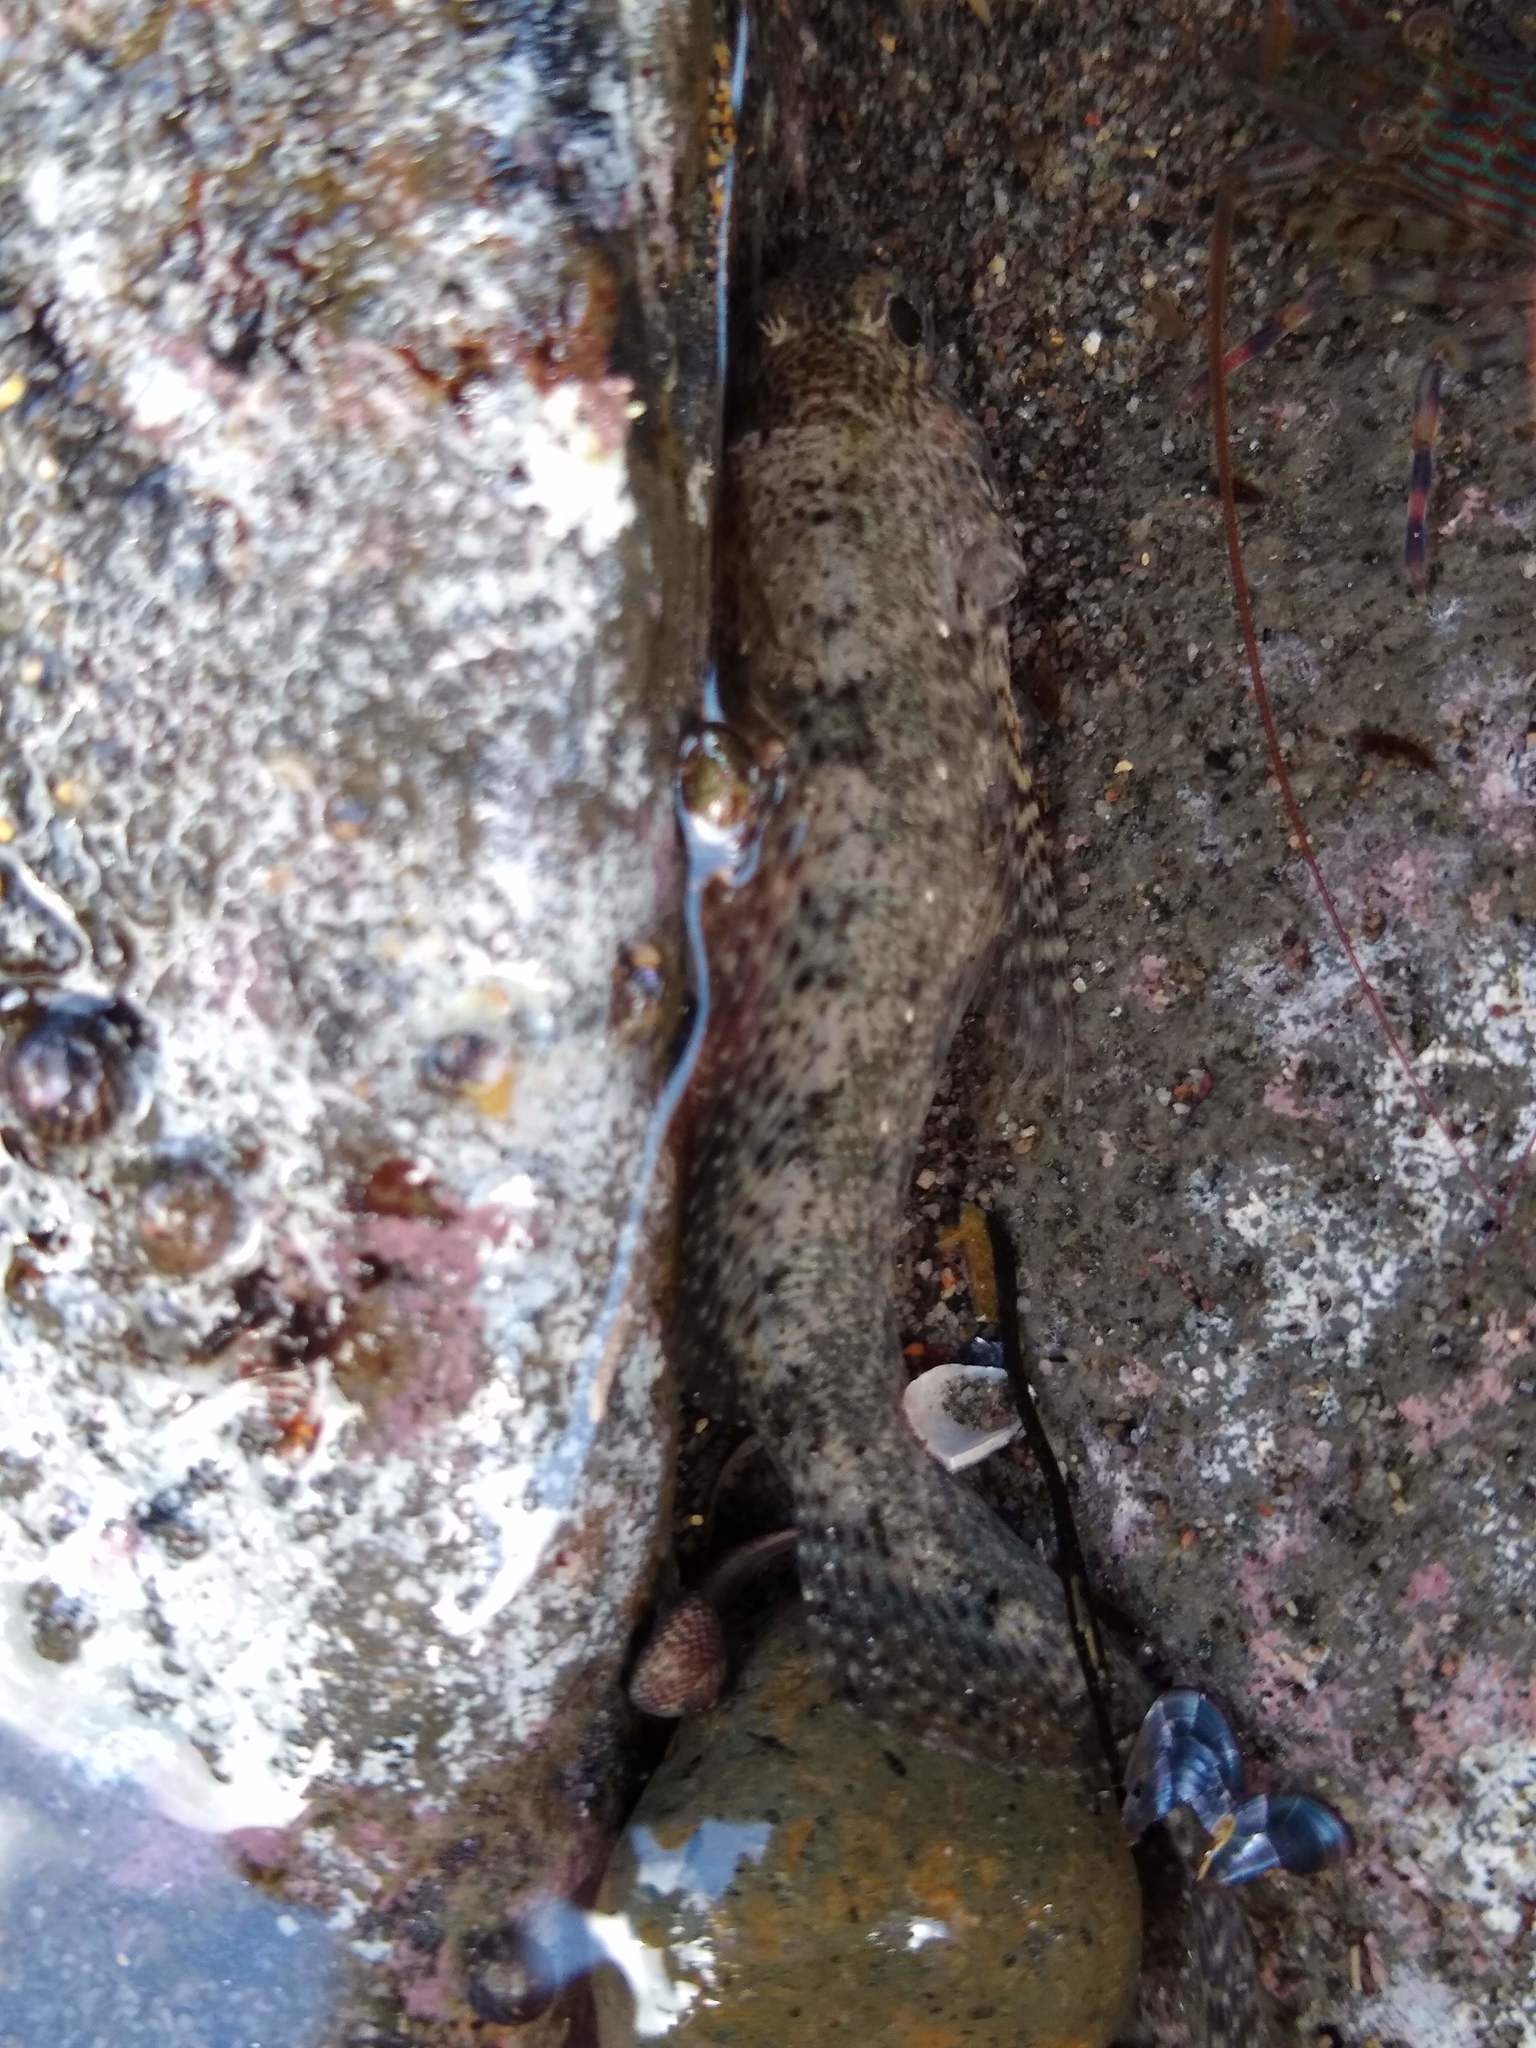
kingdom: Animalia
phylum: Chordata
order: Perciformes
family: Tripterygiidae
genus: Forsterygion
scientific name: Forsterygion capito
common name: Spotted robust triplefin
